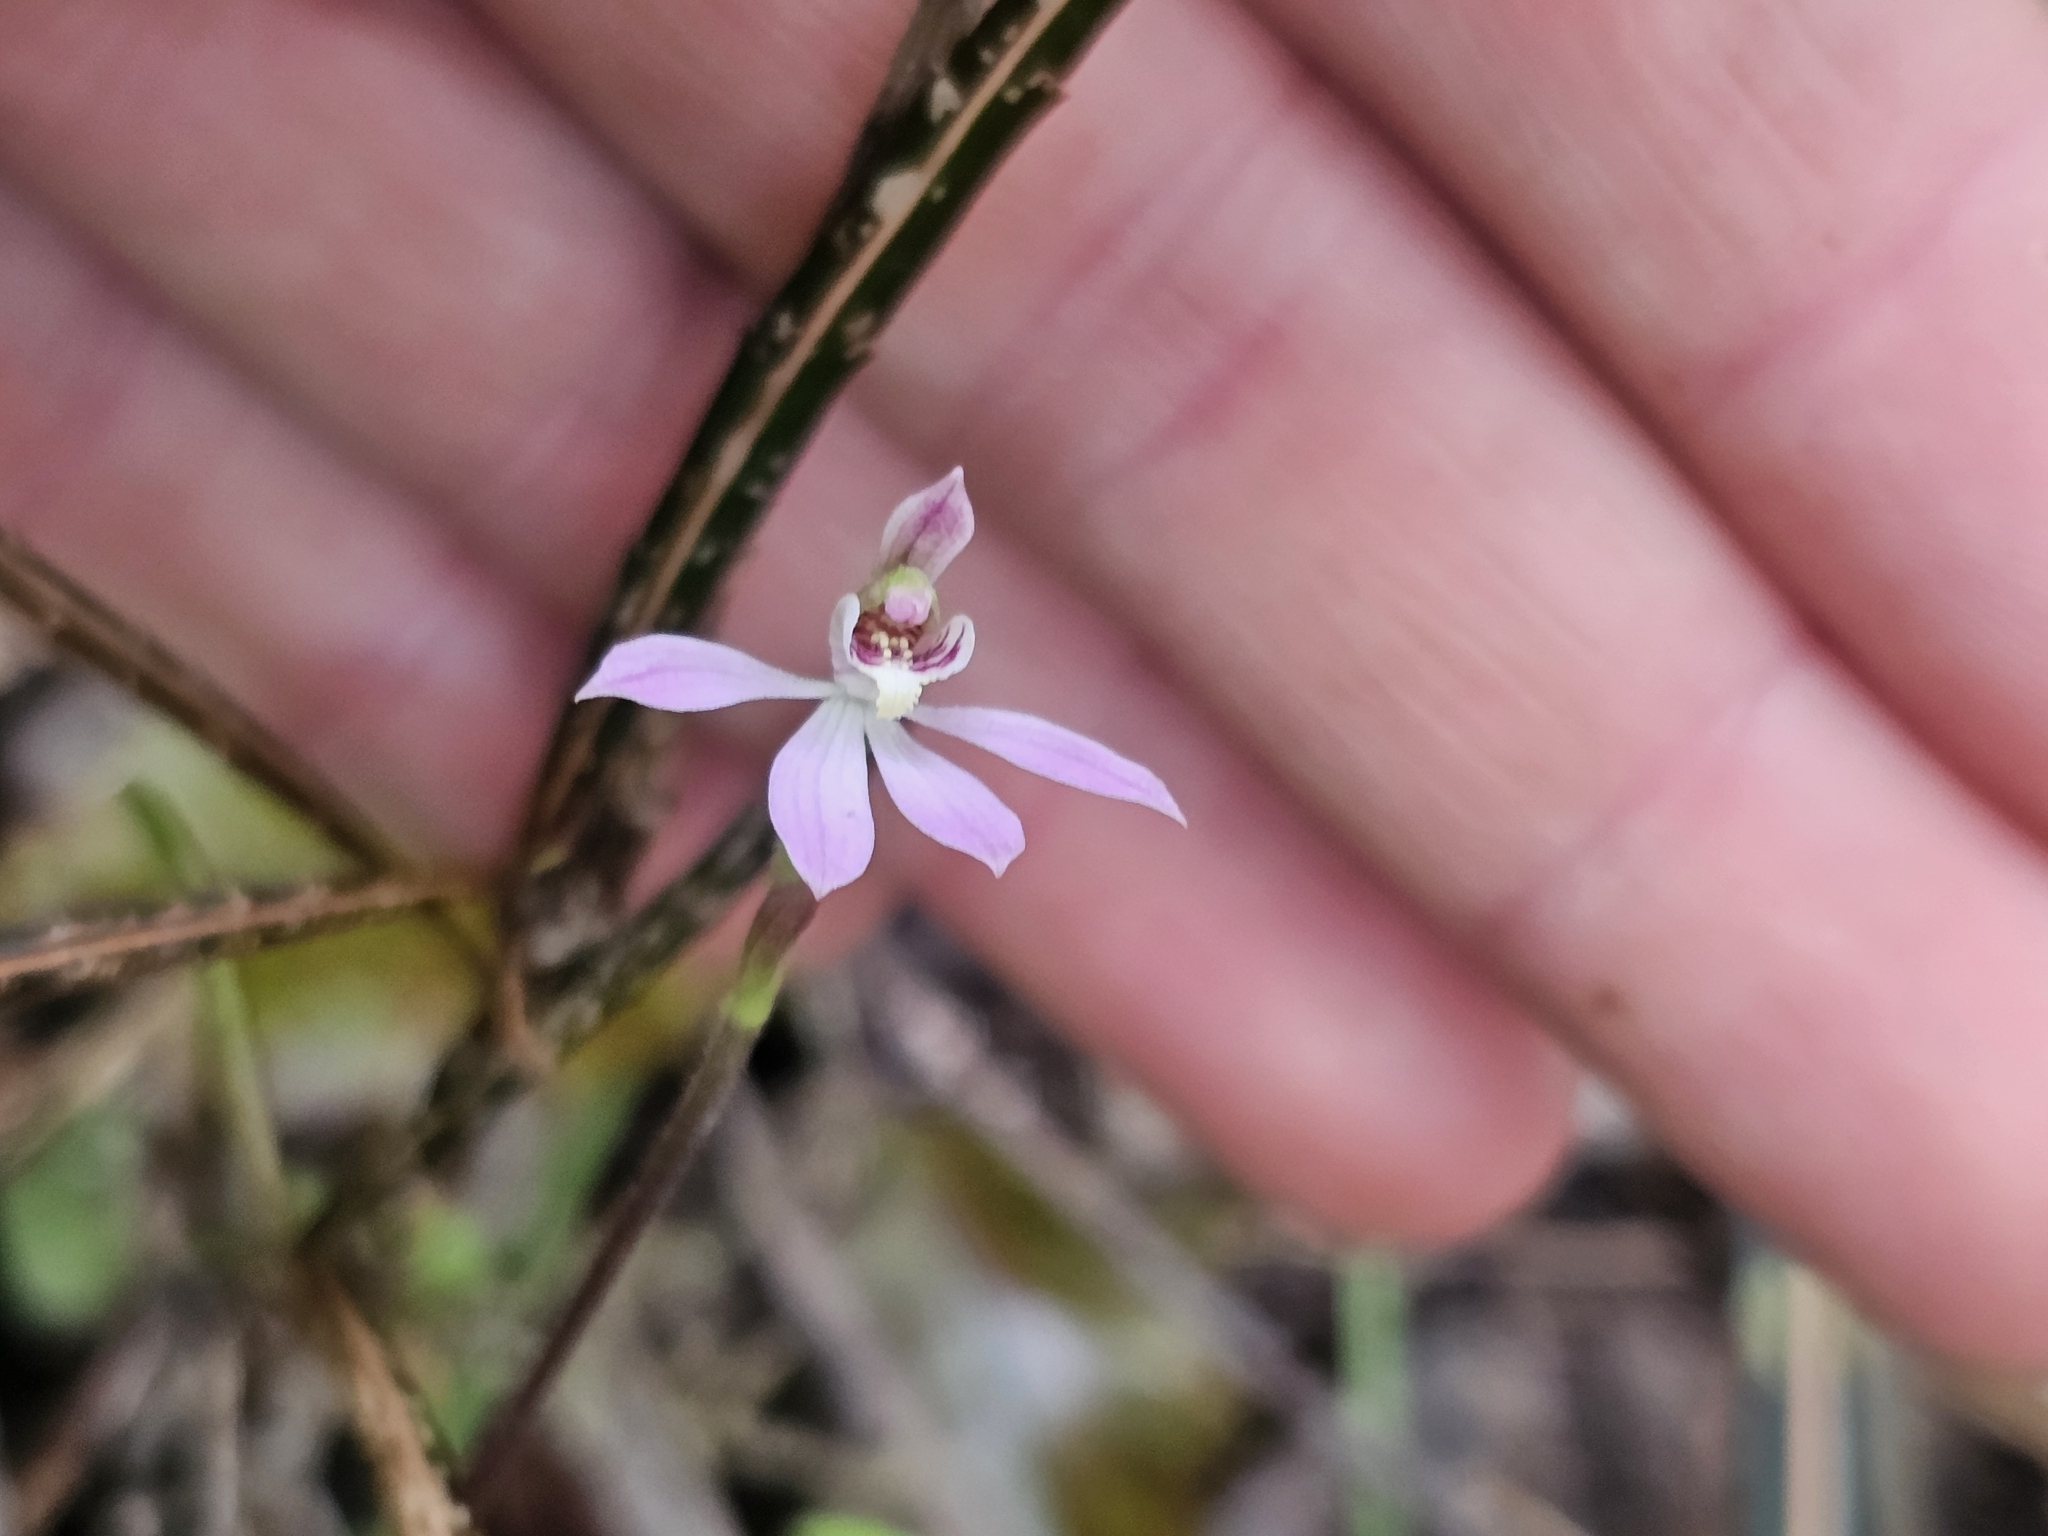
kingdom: Plantae
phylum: Tracheophyta
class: Liliopsida
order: Asparagales
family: Orchidaceae
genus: Caladenia
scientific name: Caladenia variegata
